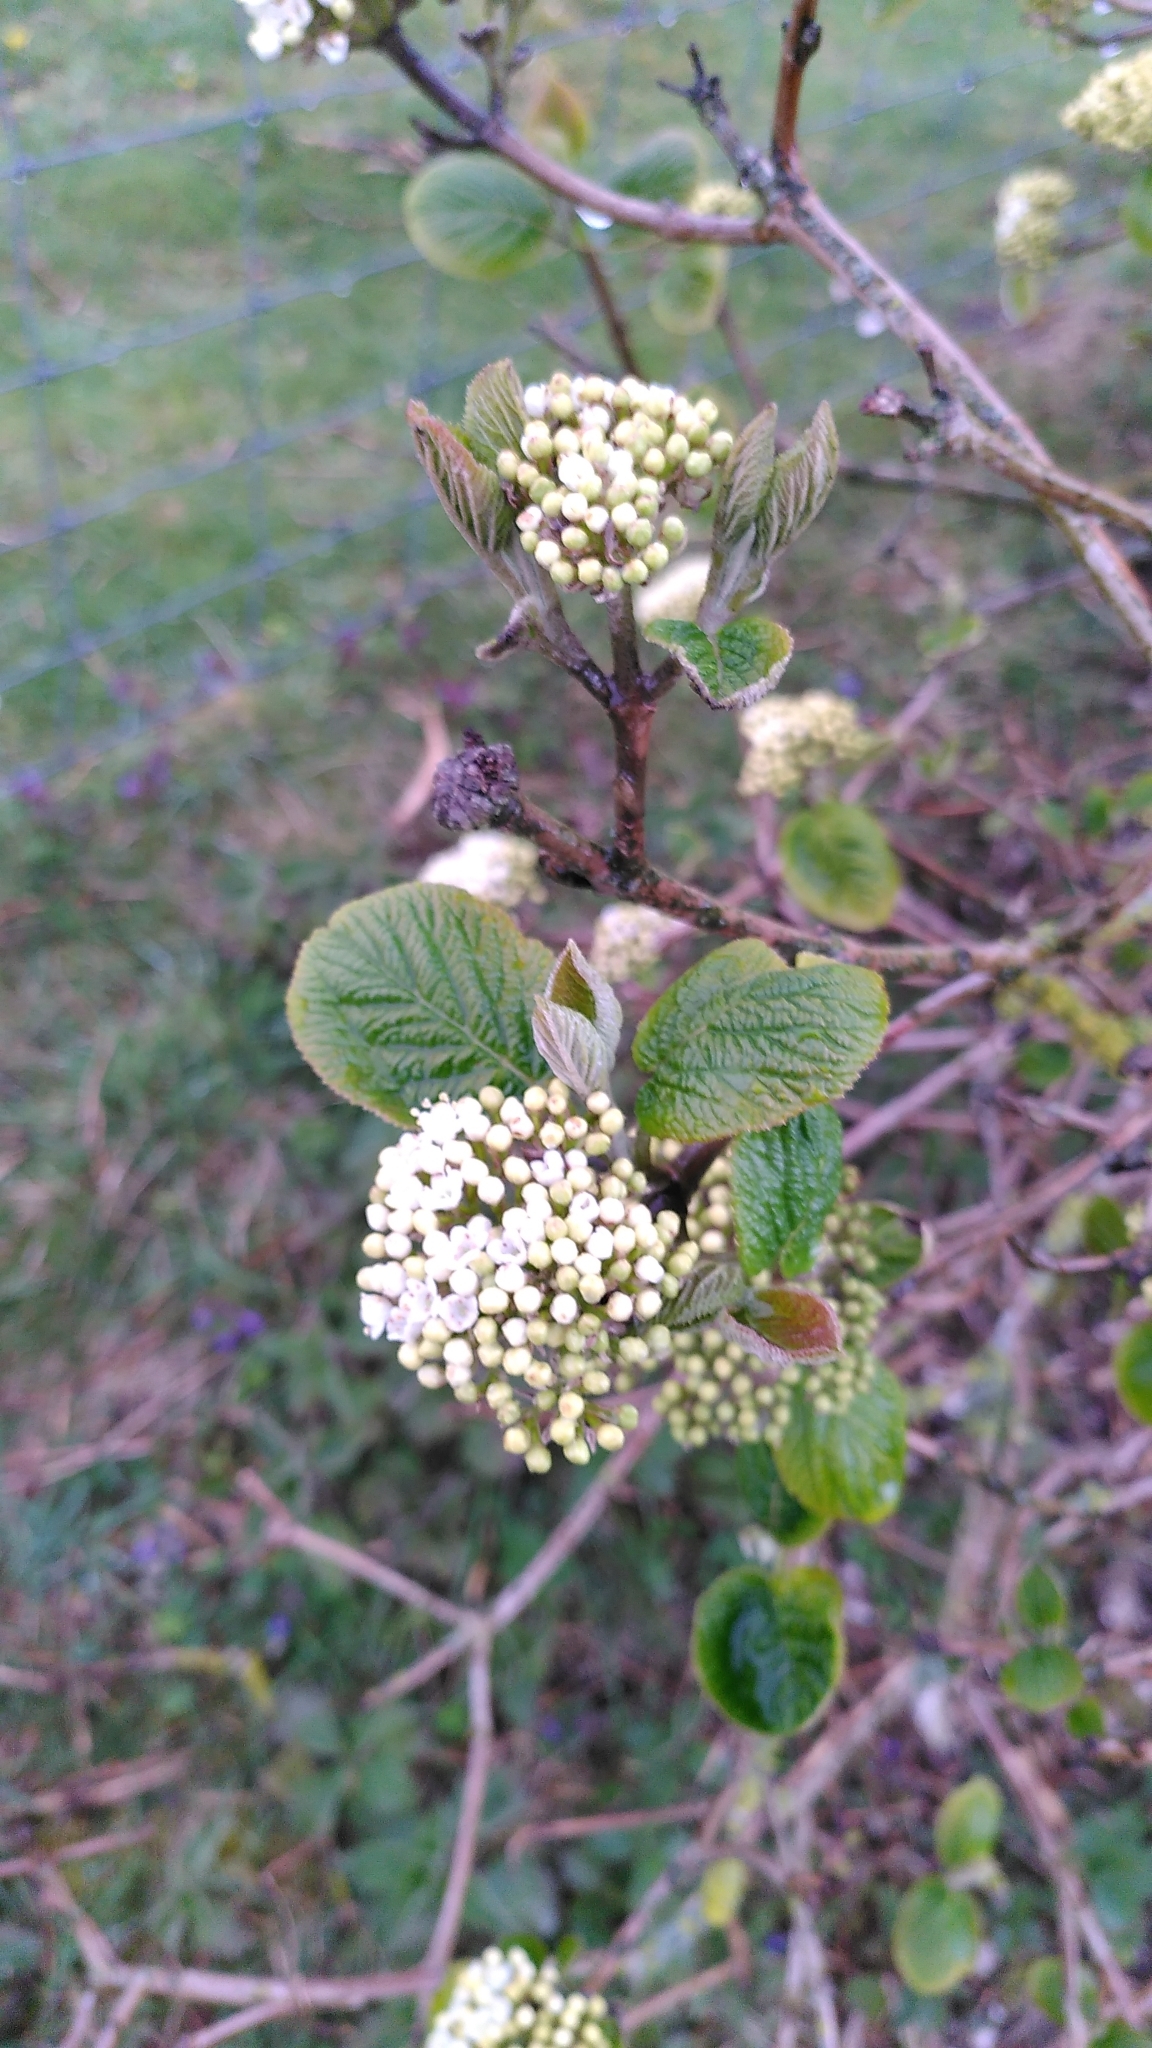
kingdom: Plantae
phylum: Tracheophyta
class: Magnoliopsida
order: Dipsacales
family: Viburnaceae
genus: Viburnum
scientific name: Viburnum lantana
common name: Wayfaring tree
